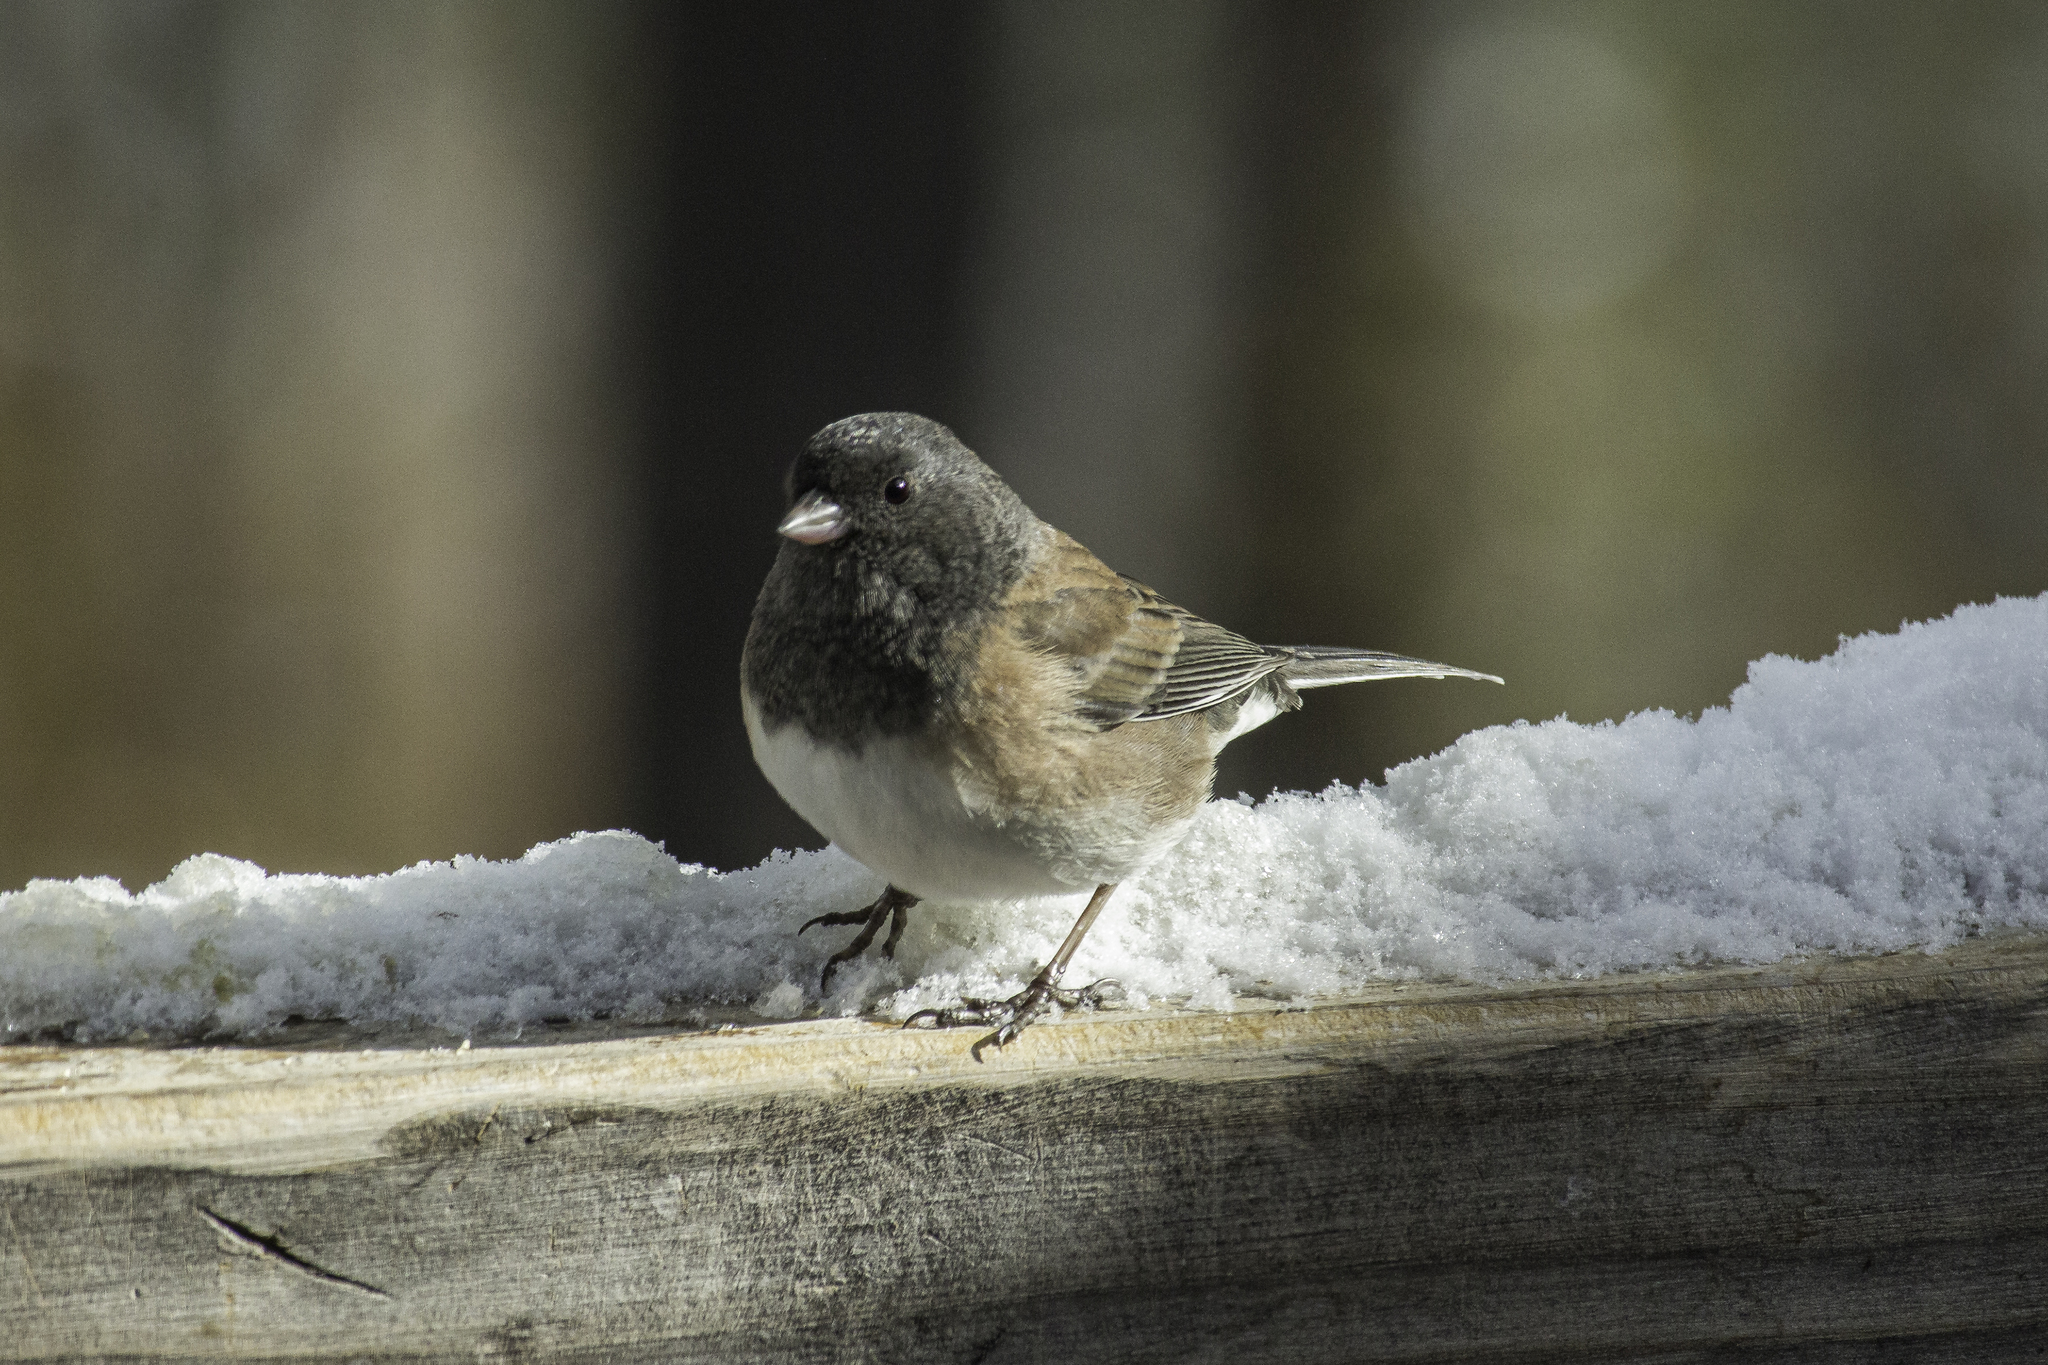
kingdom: Animalia
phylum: Chordata
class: Aves
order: Passeriformes
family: Passerellidae
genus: Junco
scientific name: Junco hyemalis
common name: Dark-eyed junco
